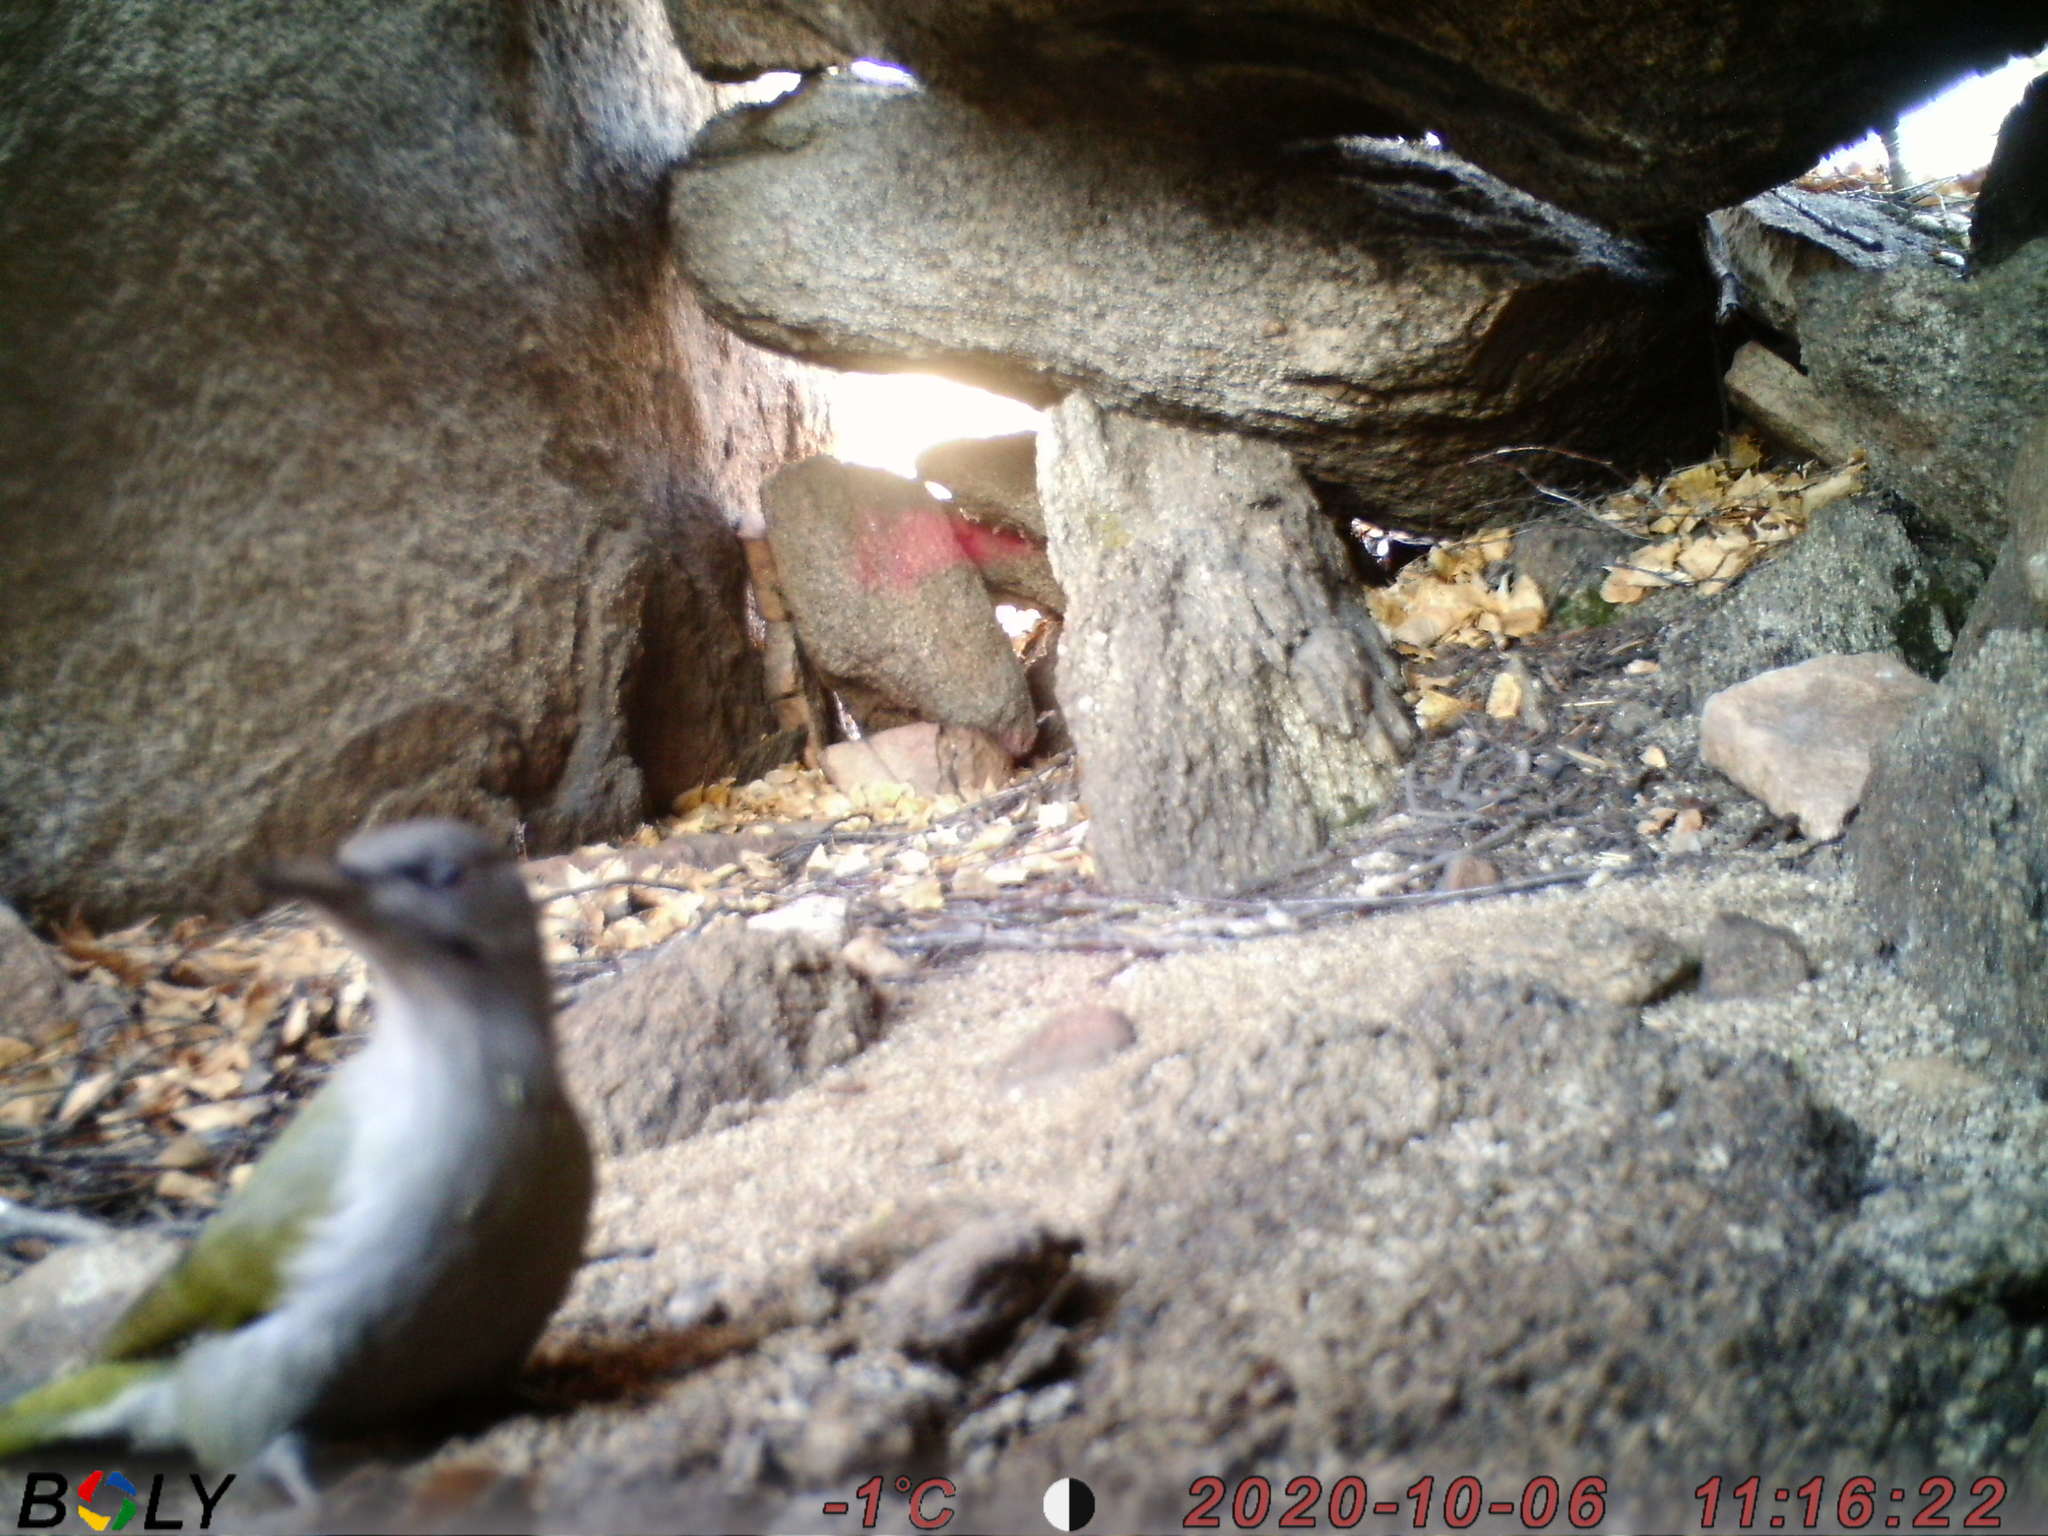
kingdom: Animalia
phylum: Chordata
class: Aves
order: Piciformes
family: Picidae
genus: Picus
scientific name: Picus canus
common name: Grey-headed woodpecker
